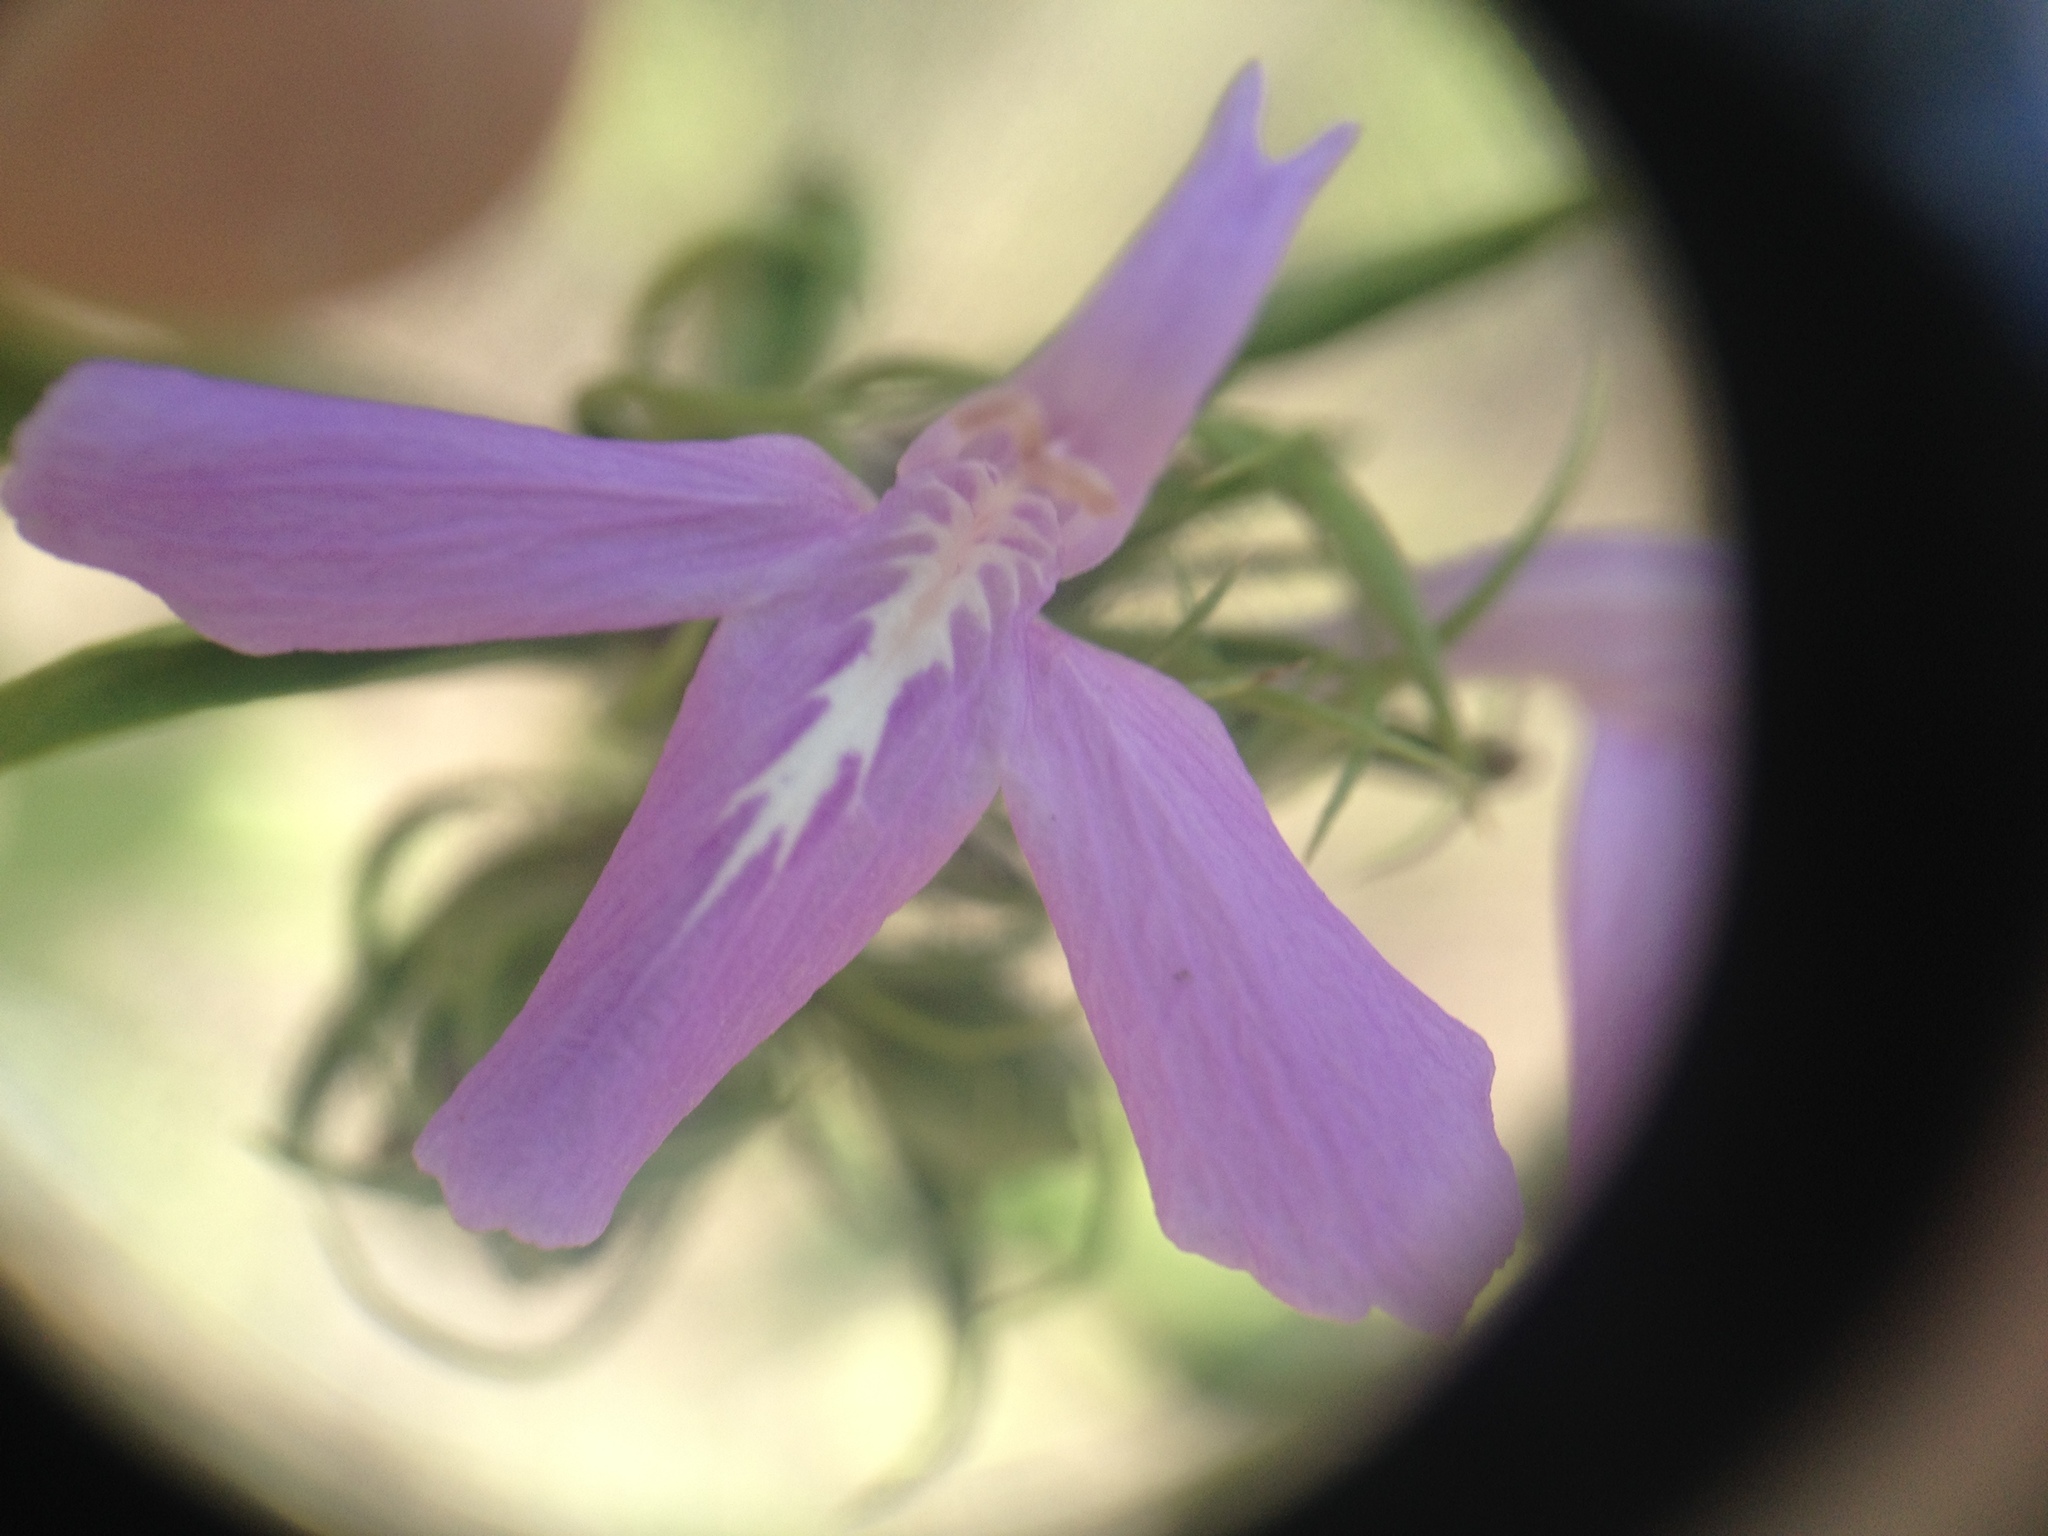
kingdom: Plantae
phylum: Tracheophyta
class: Magnoliopsida
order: Lamiales
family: Acanthaceae
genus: Justicia
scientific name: Justicia squarrosa
